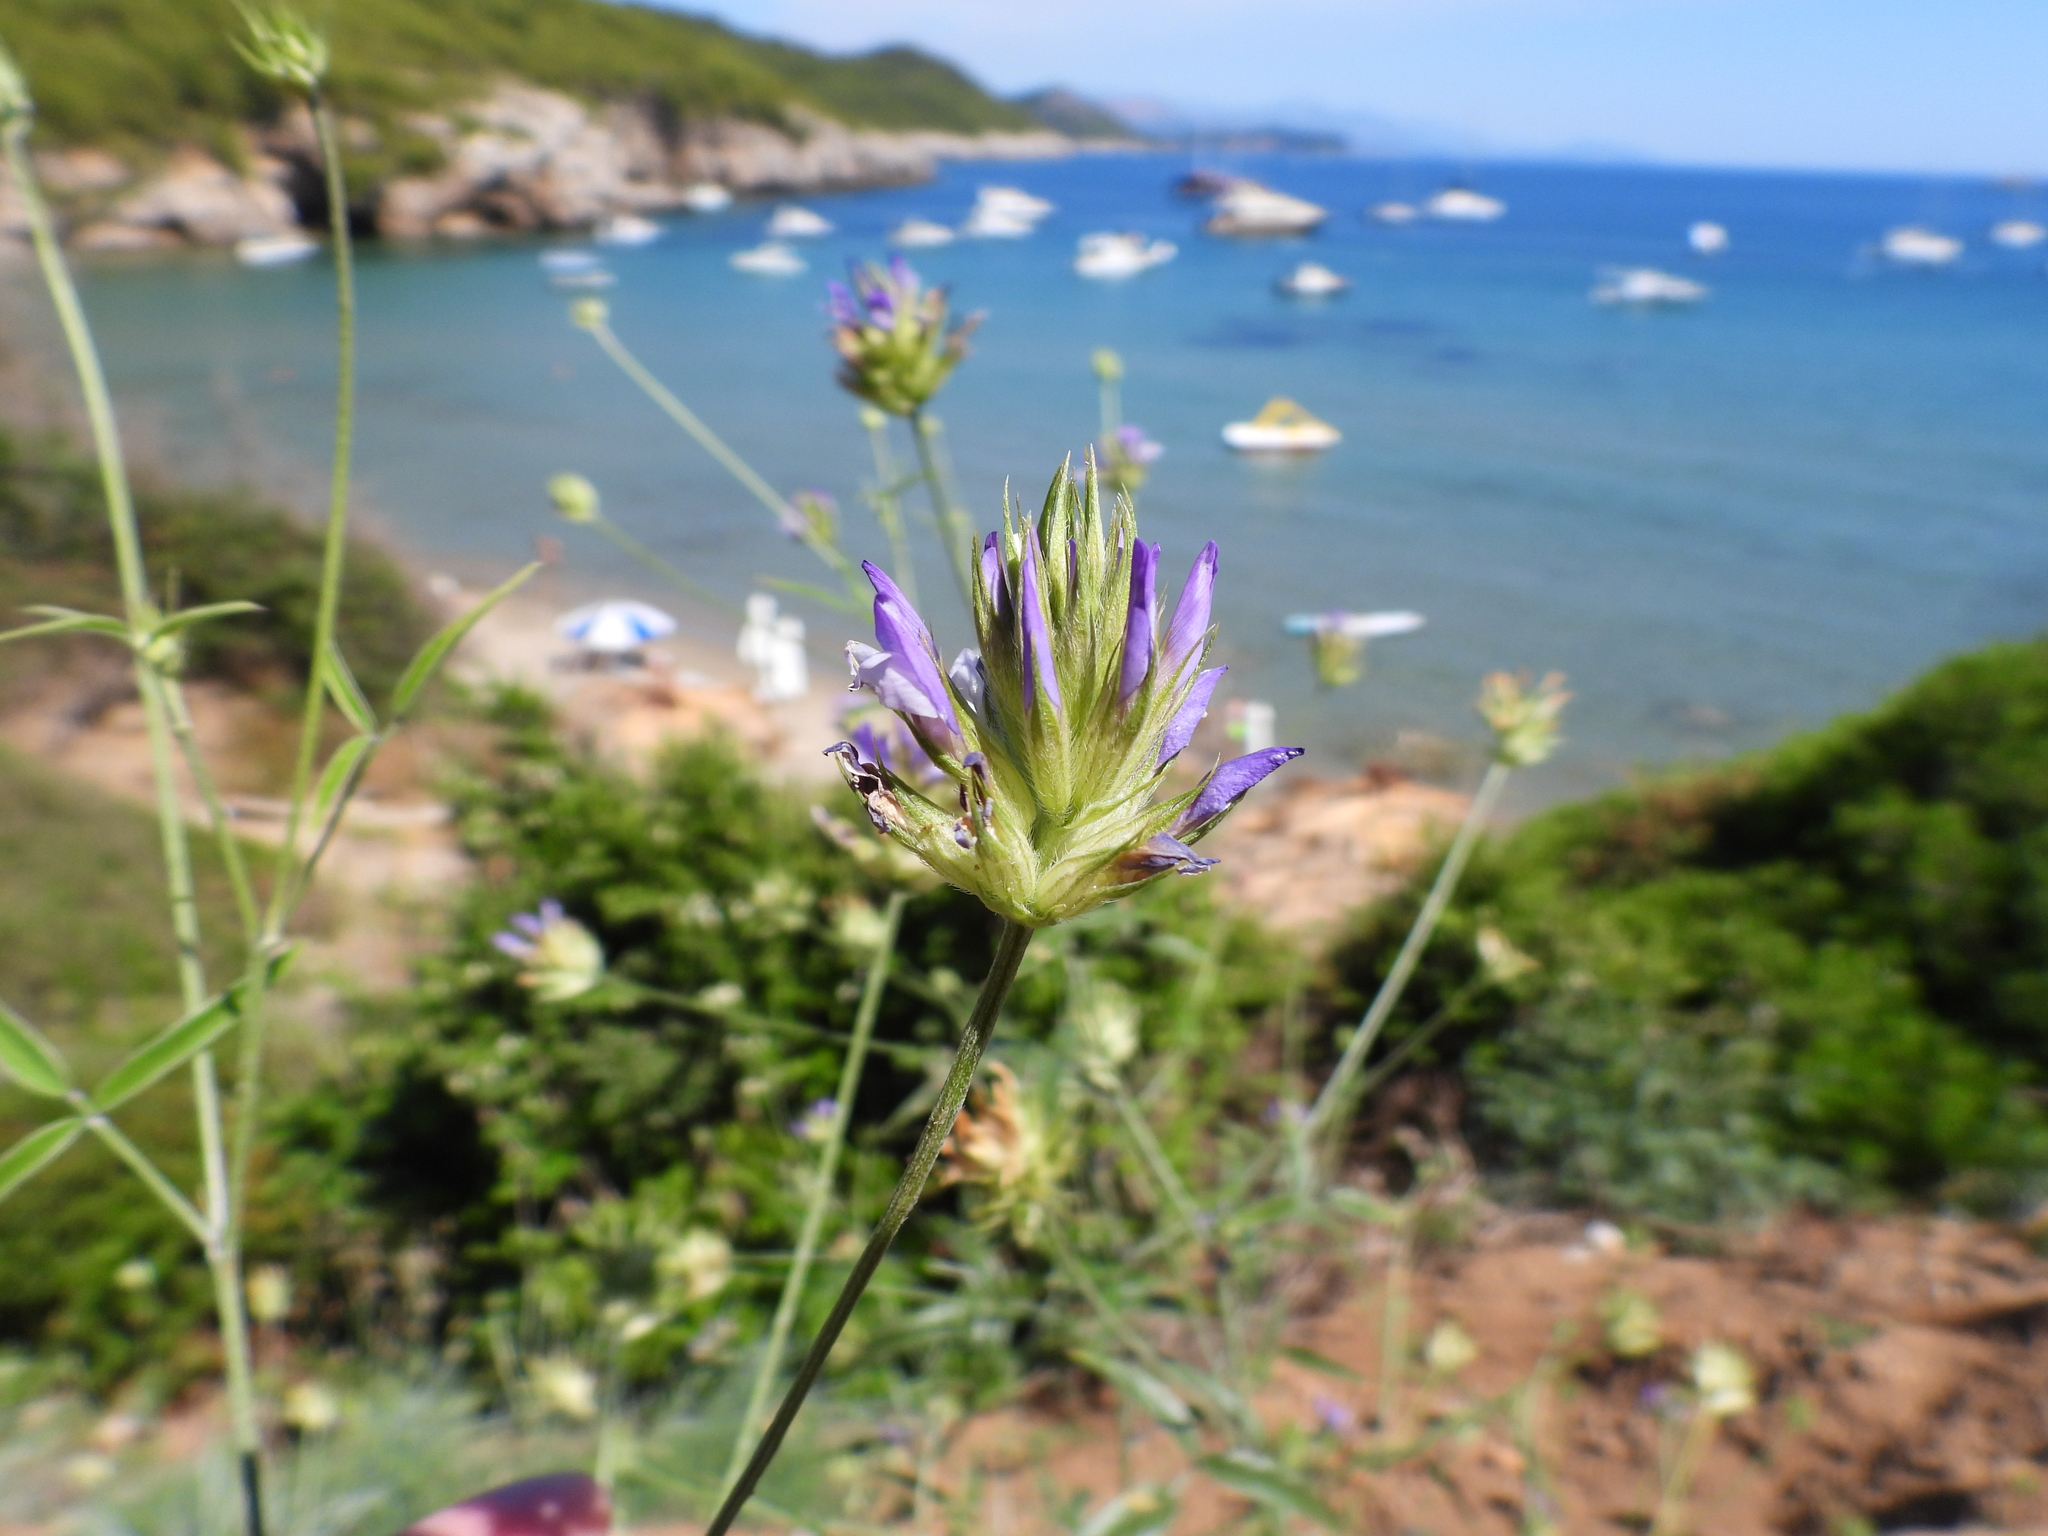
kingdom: Plantae
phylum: Tracheophyta
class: Magnoliopsida
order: Fabales
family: Fabaceae
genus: Bituminaria
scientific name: Bituminaria bituminosa
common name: Arabian pea
